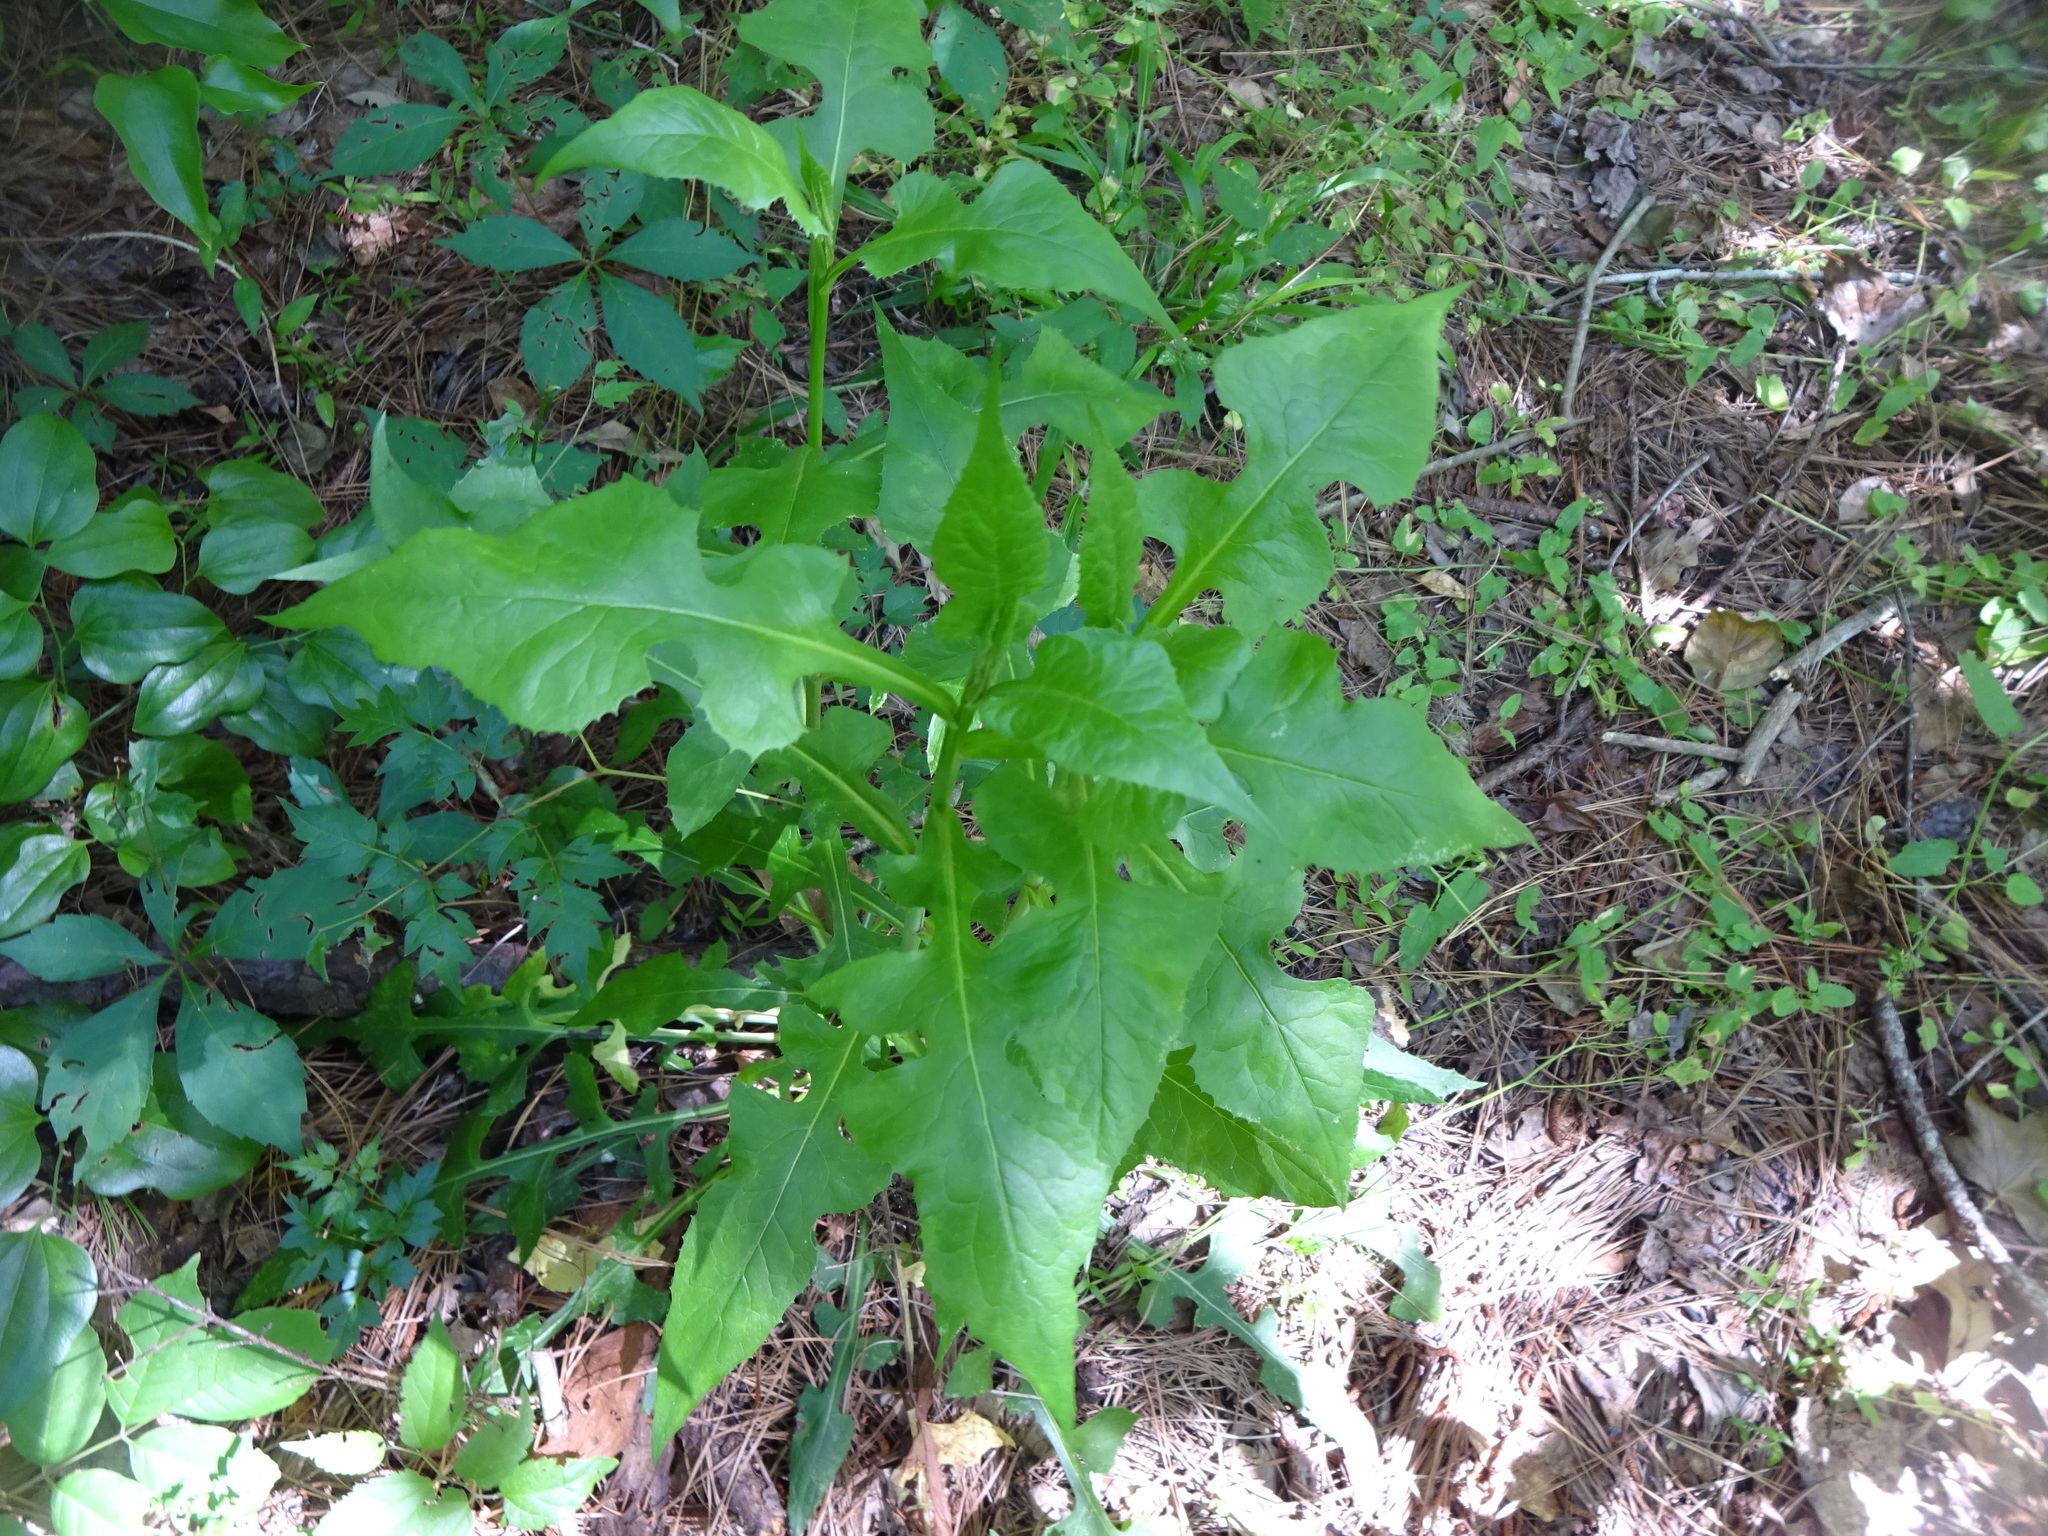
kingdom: Plantae
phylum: Tracheophyta
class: Magnoliopsida
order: Asterales
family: Asteraceae
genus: Lactuca
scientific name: Lactuca floridana
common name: Woodland lettuce
